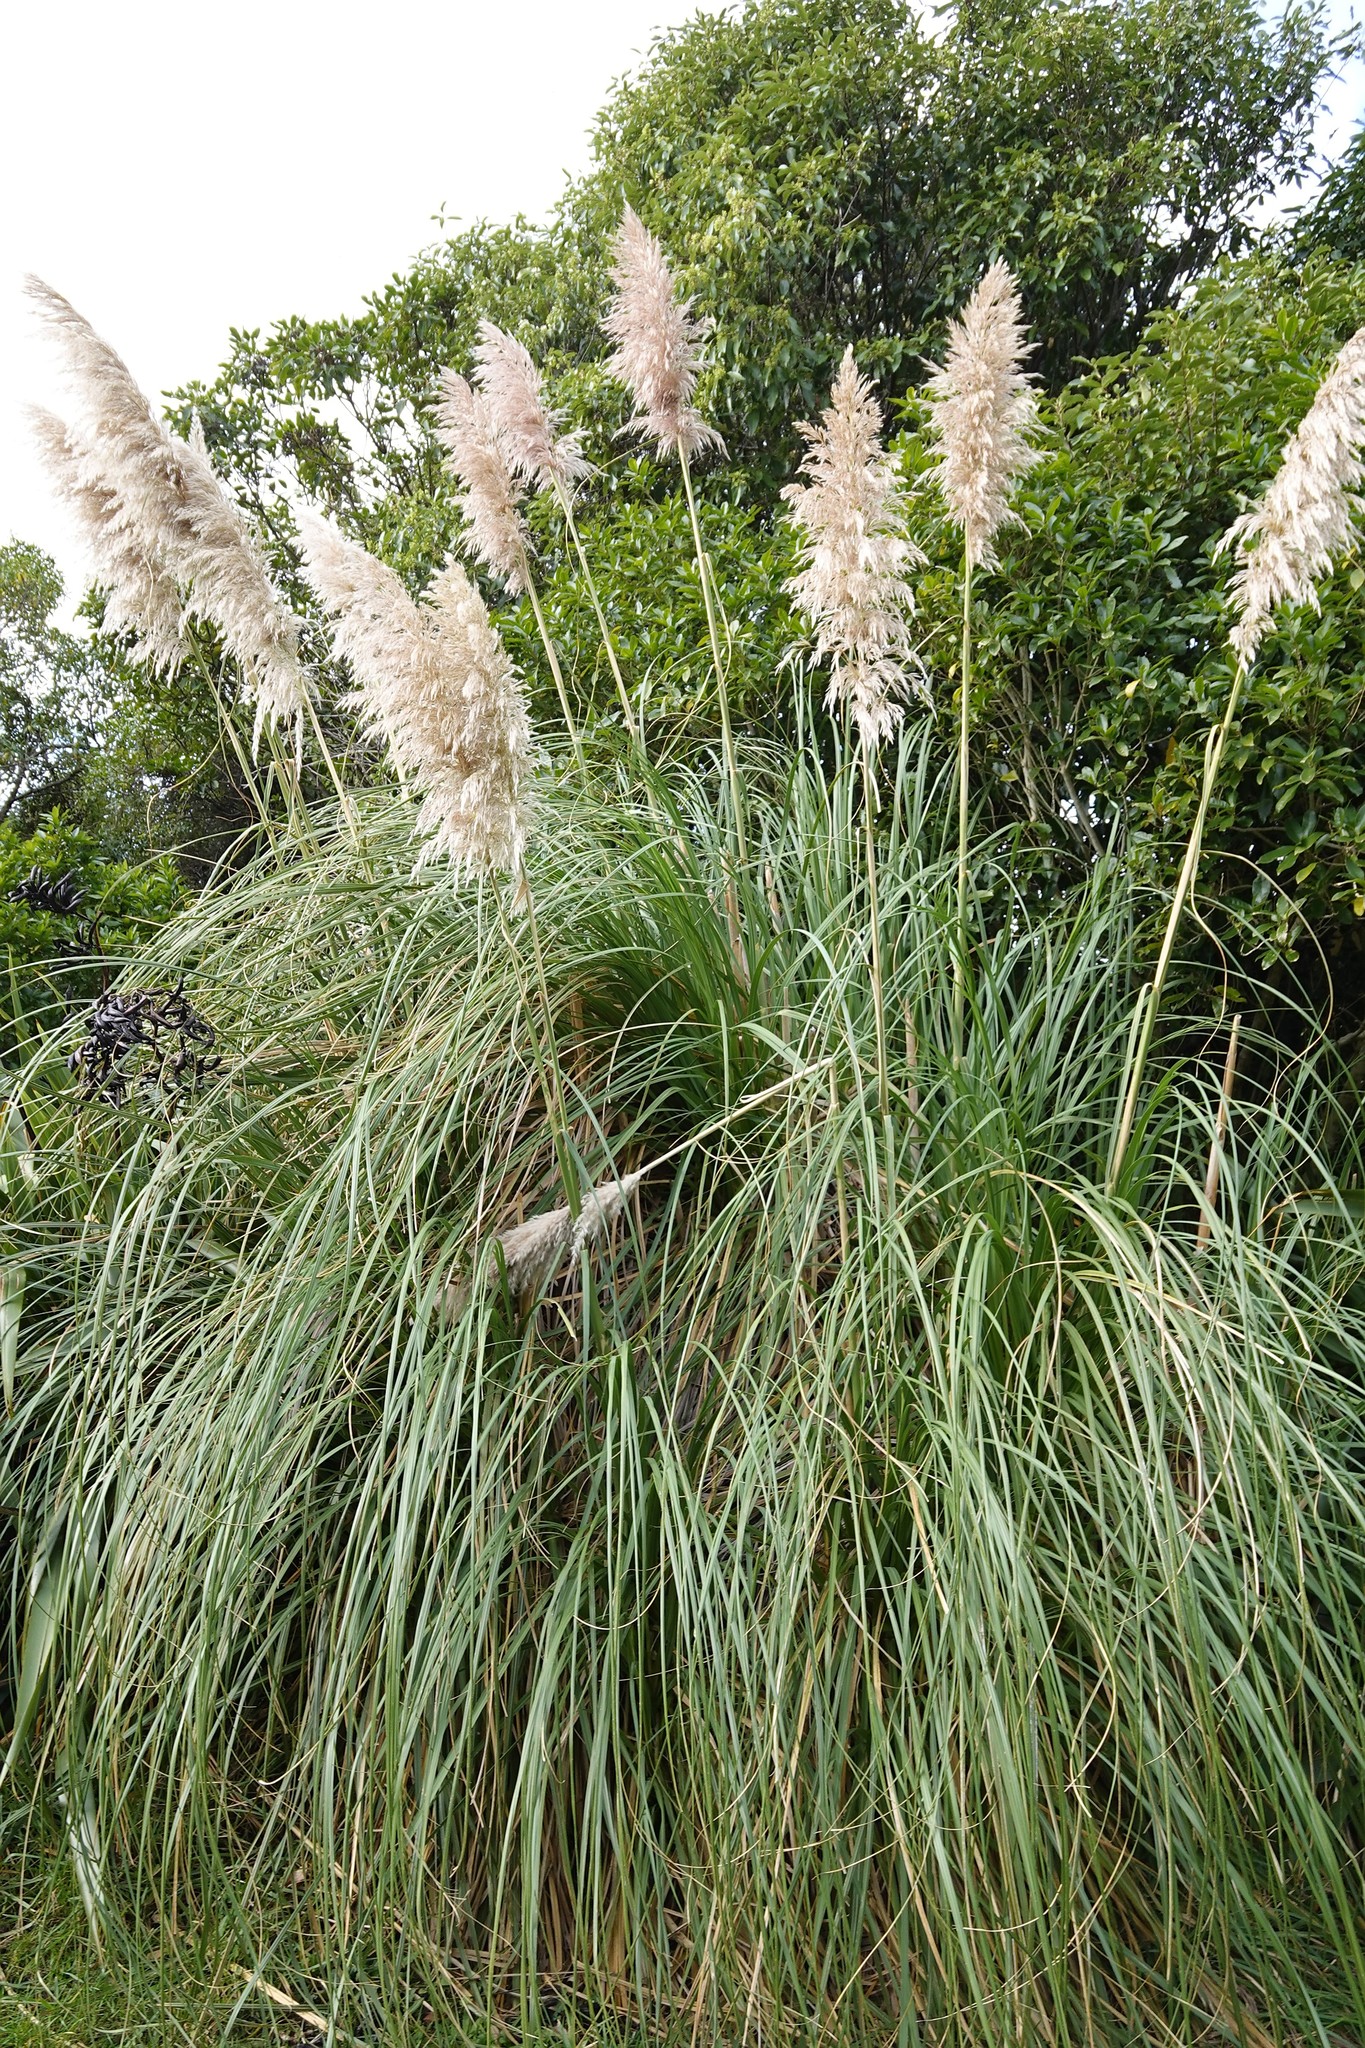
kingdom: Plantae
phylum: Tracheophyta
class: Liliopsida
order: Poales
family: Poaceae
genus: Cortaderia
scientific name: Cortaderia selloana
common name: Uruguayan pampas grass
